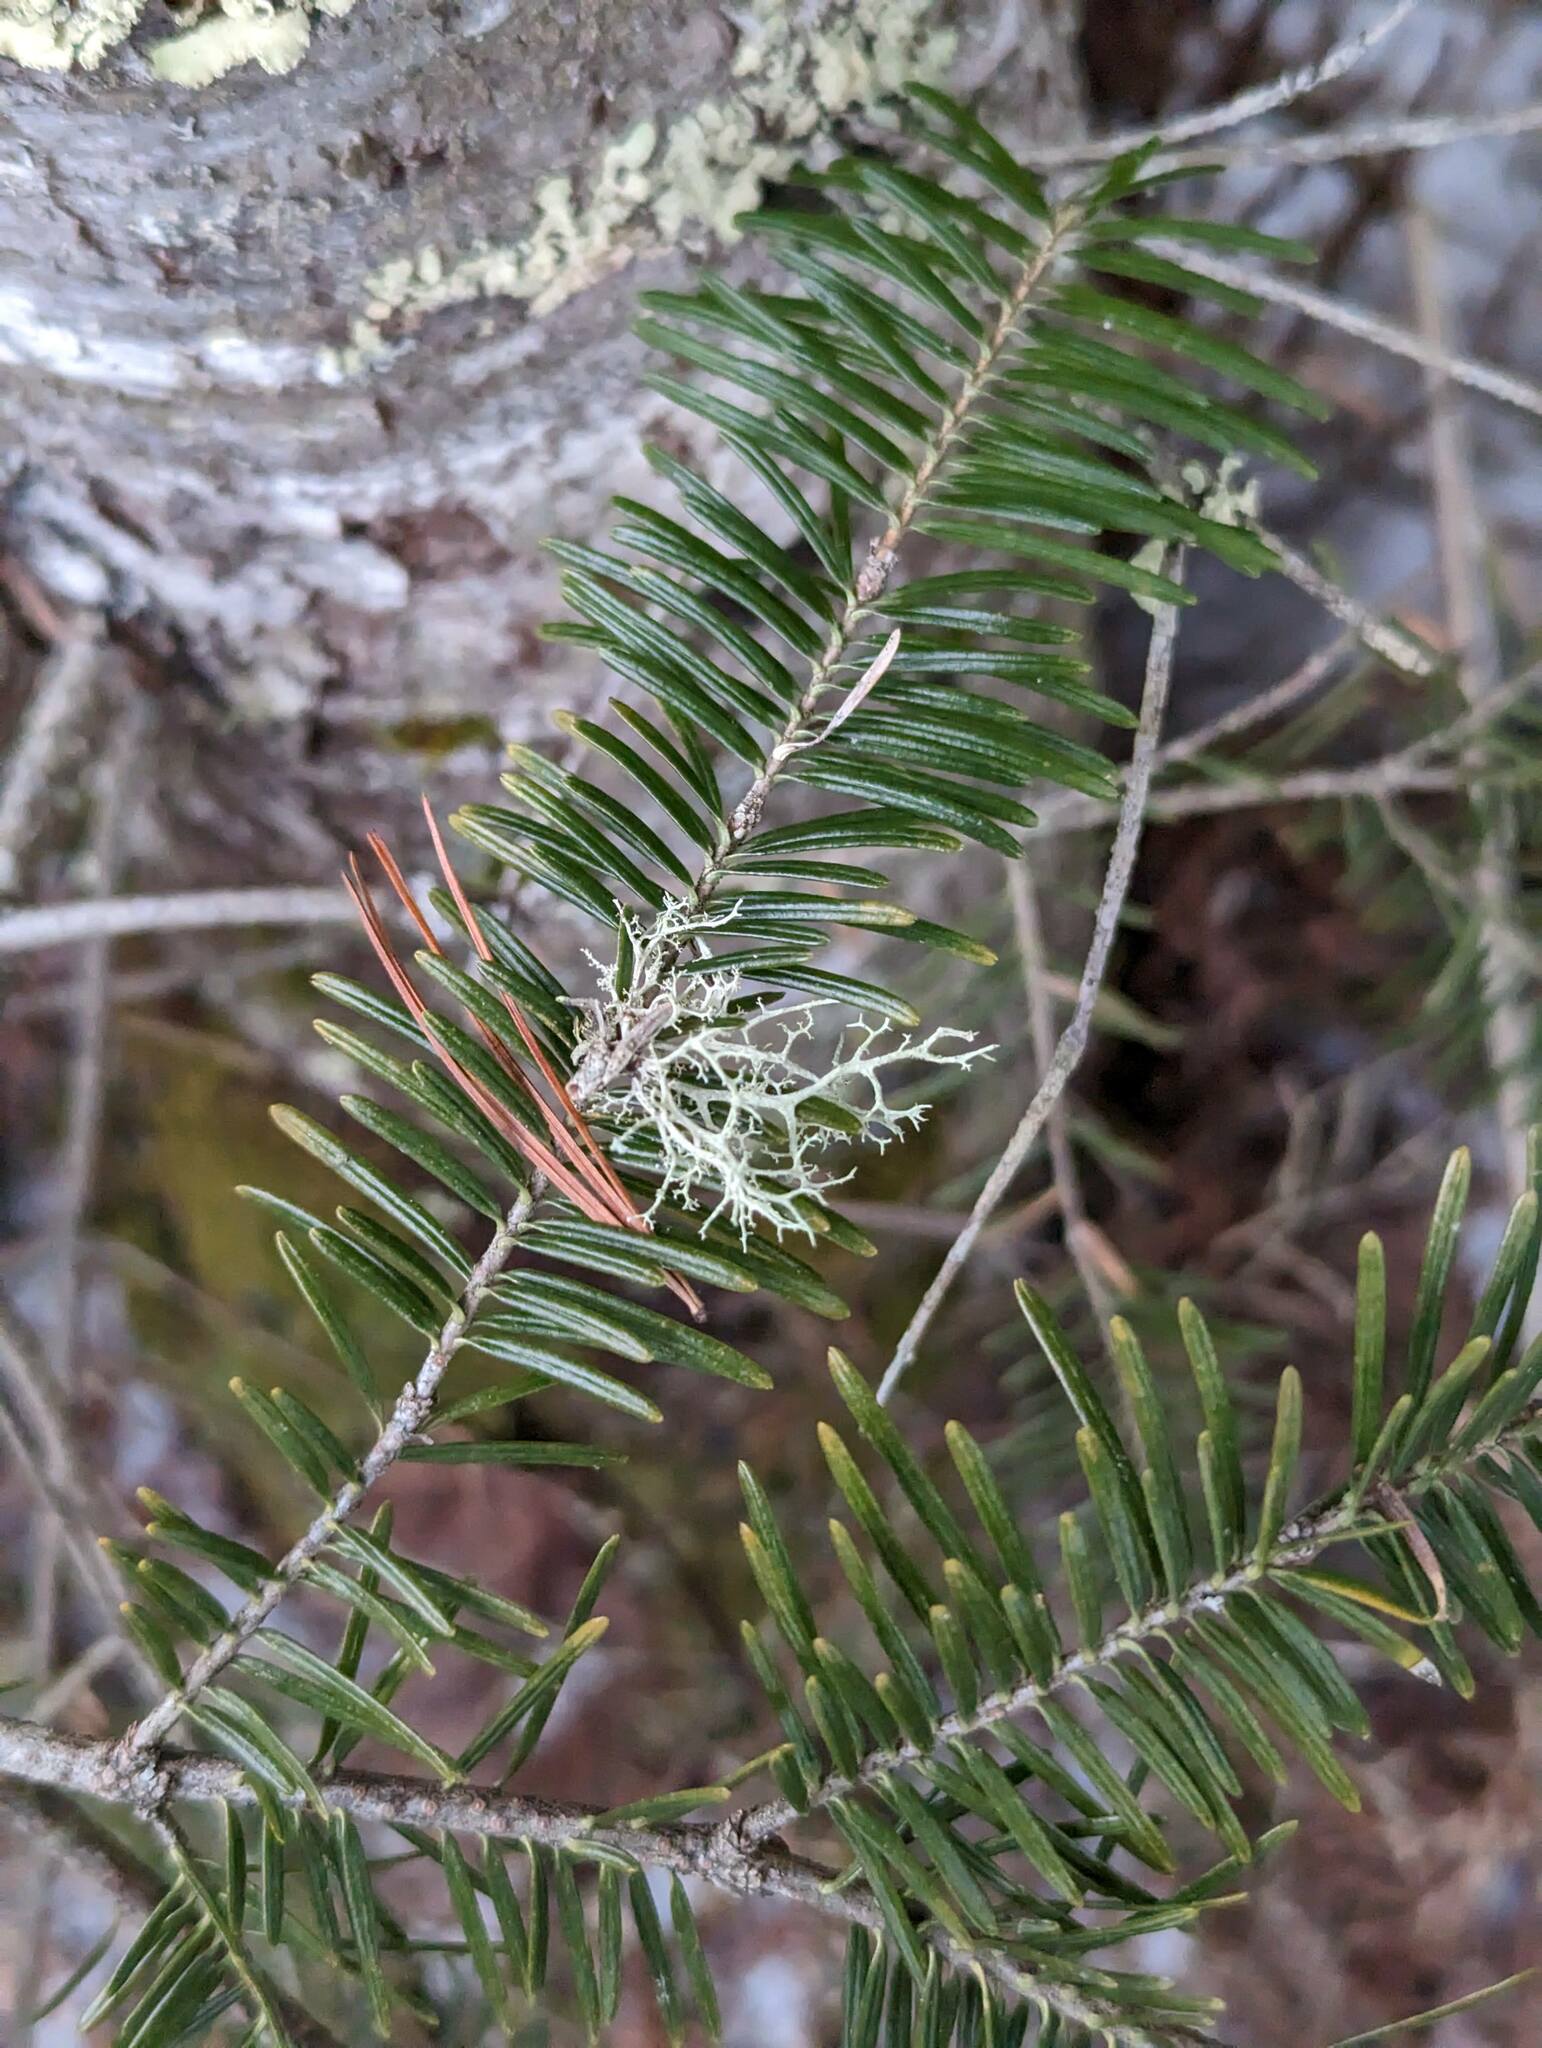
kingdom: Plantae
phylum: Tracheophyta
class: Pinopsida
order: Pinales
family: Pinaceae
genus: Abies
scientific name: Abies balsamea
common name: Balsam fir
